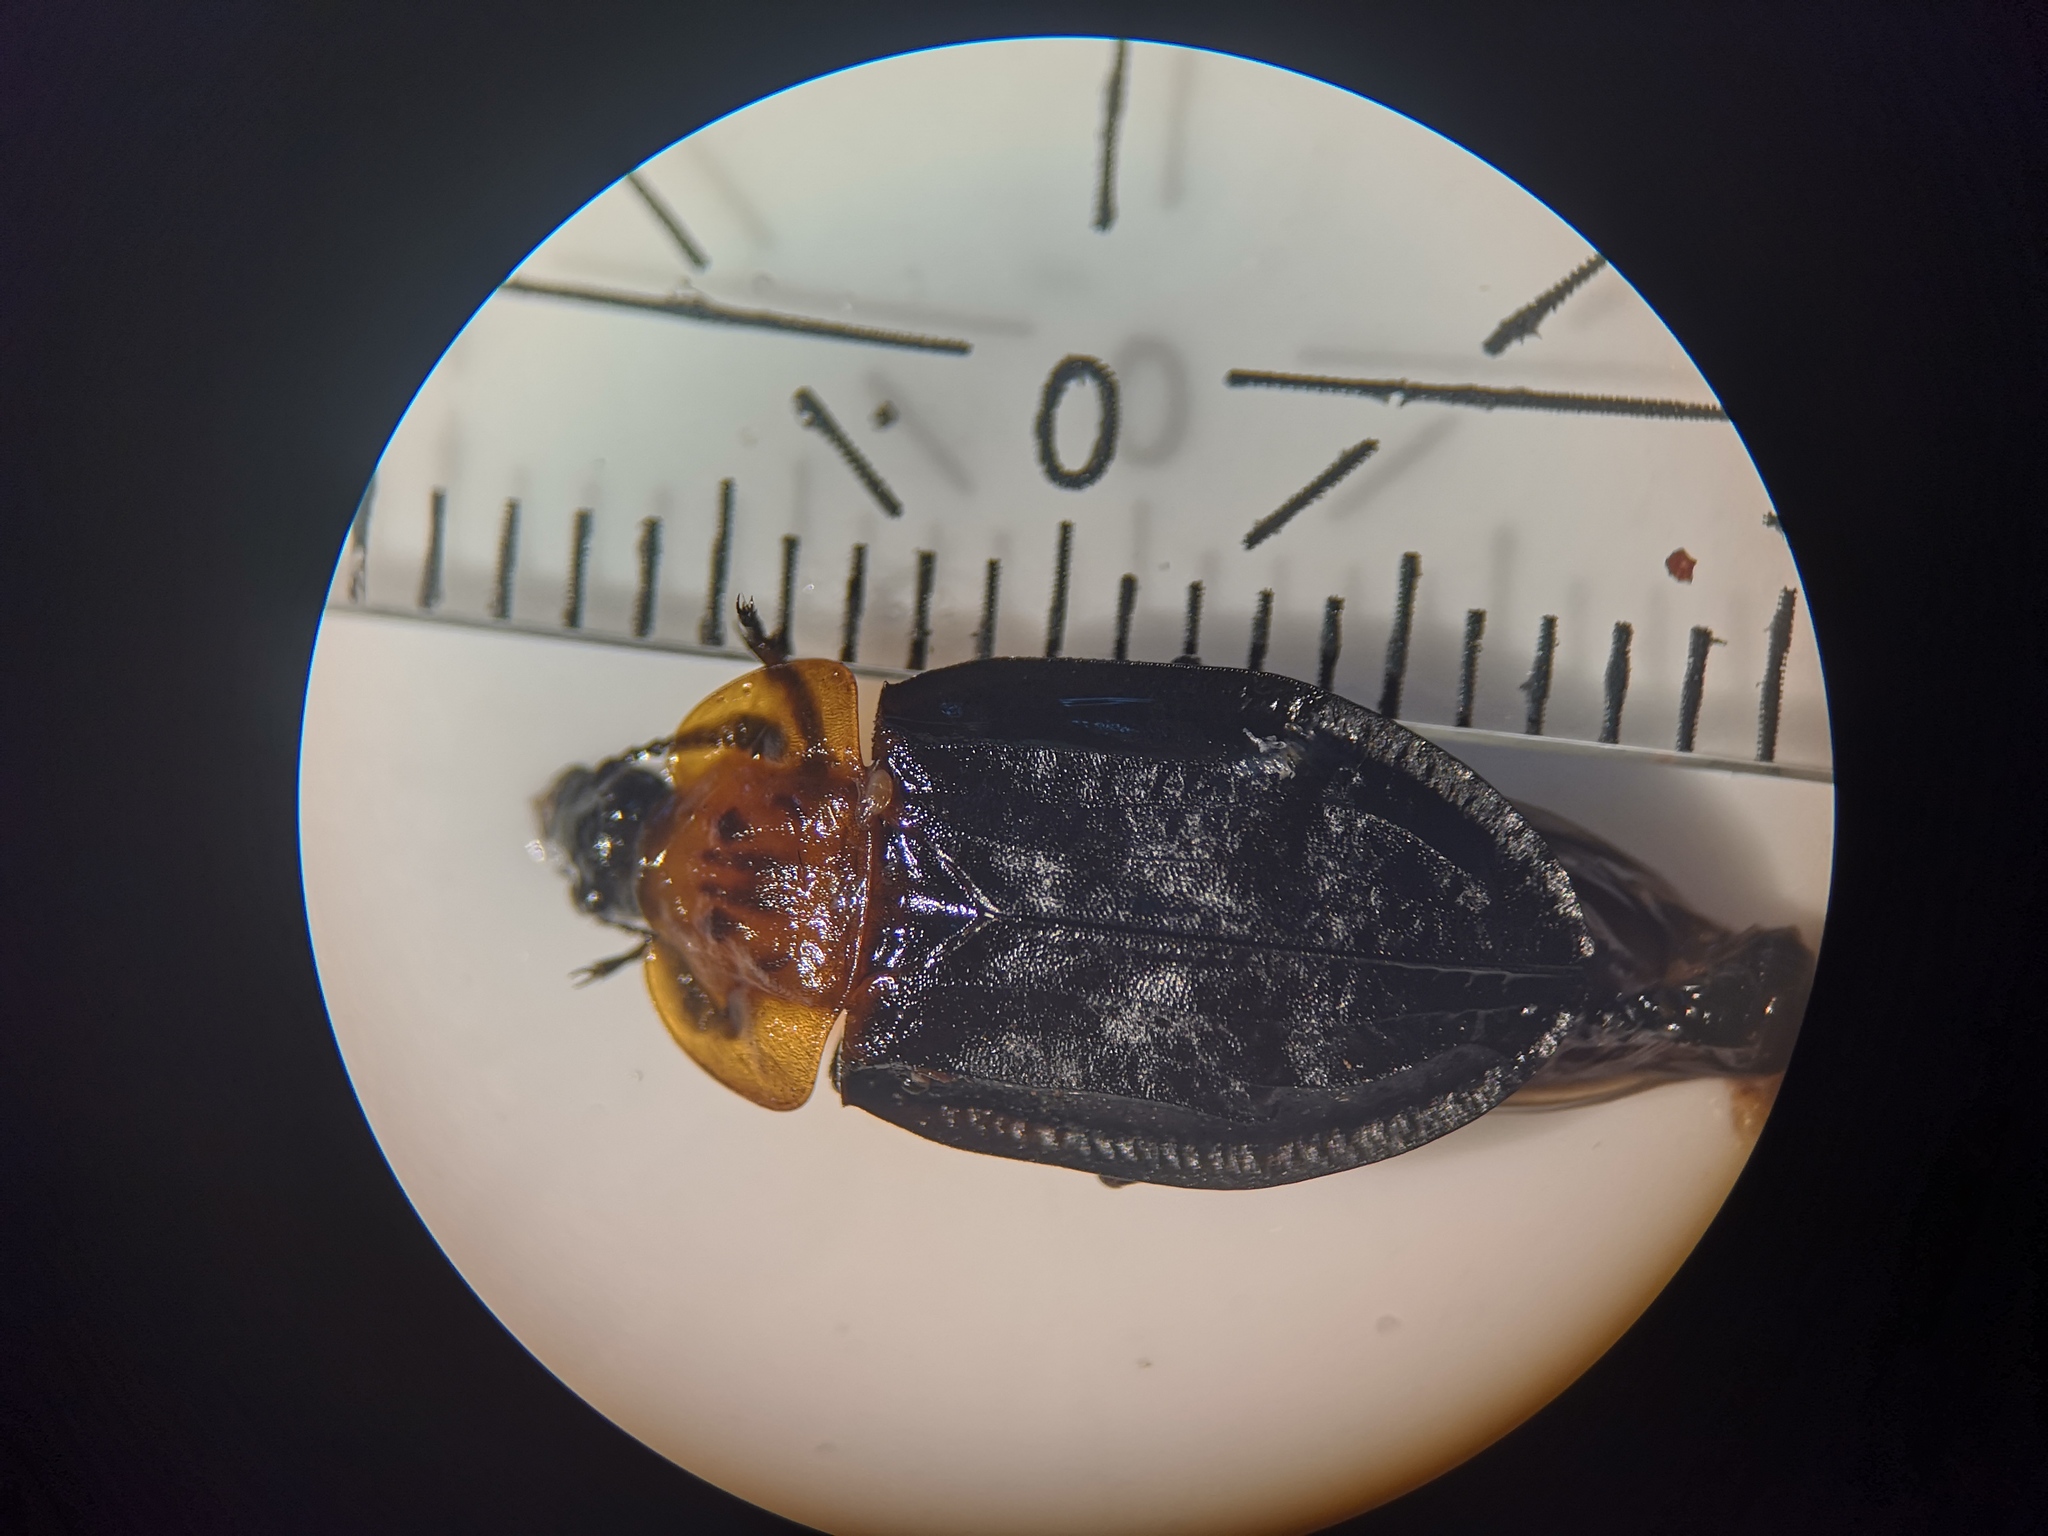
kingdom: Animalia
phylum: Arthropoda
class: Insecta
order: Coleoptera
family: Staphylinidae
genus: Oiceoptoma
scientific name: Oiceoptoma thoracicum
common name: Red-breasted carrion beetle
